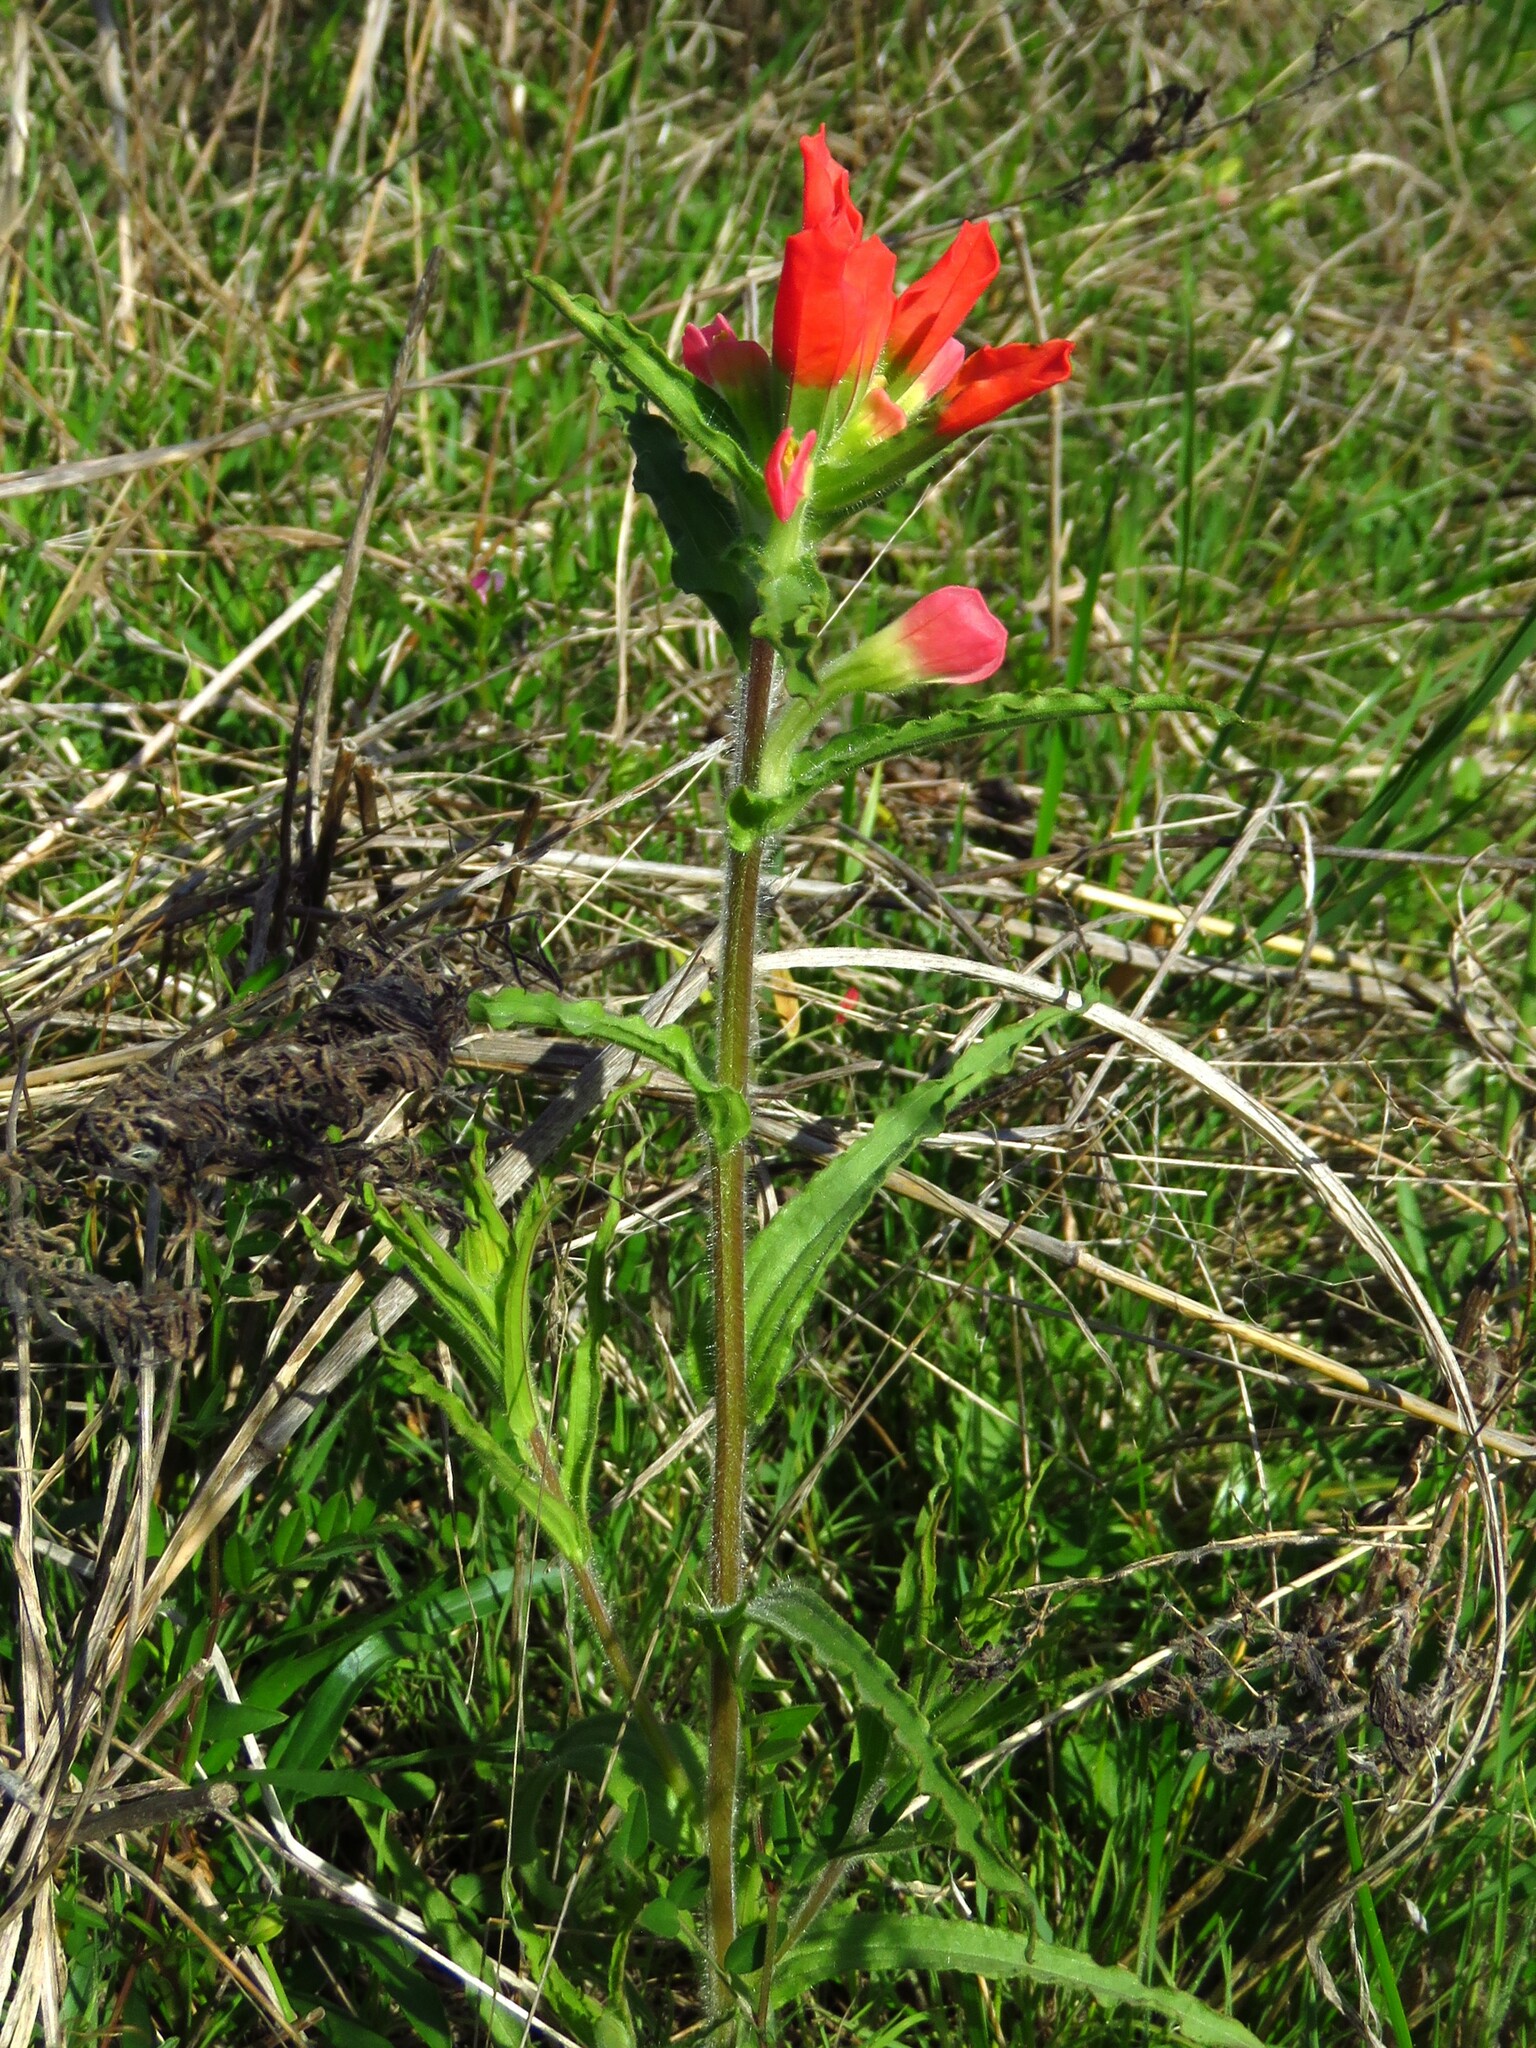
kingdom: Plantae
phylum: Tracheophyta
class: Magnoliopsida
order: Lamiales
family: Orobanchaceae
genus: Castilleja
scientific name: Castilleja indivisa
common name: Texas paintbrush
